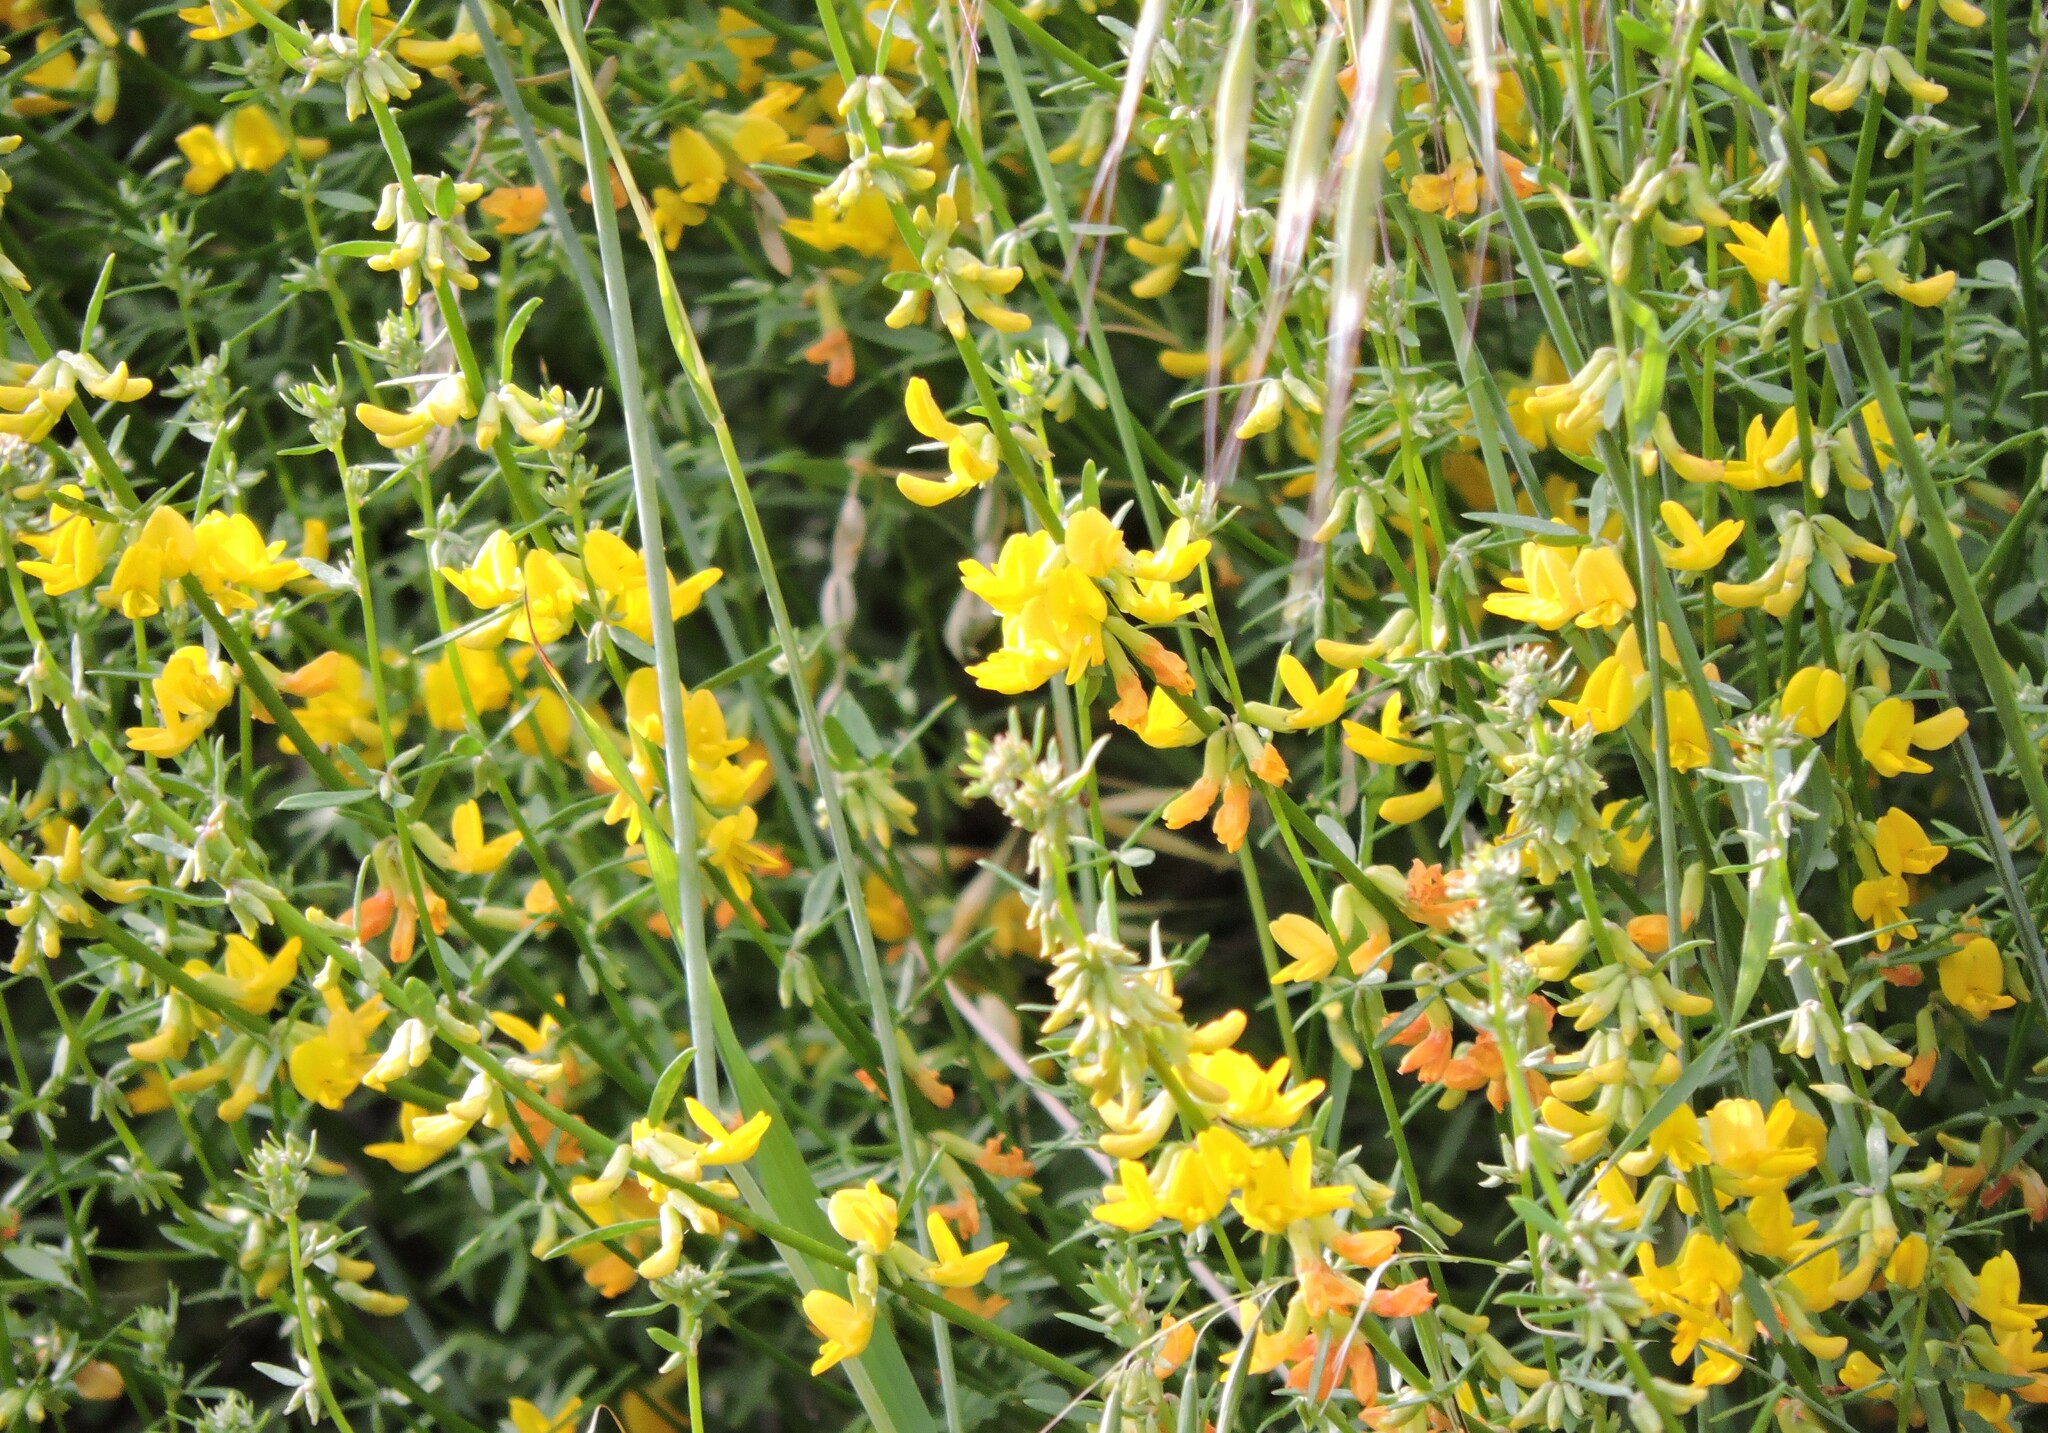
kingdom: Plantae
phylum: Tracheophyta
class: Magnoliopsida
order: Fabales
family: Fabaceae
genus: Acmispon
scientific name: Acmispon glaber
